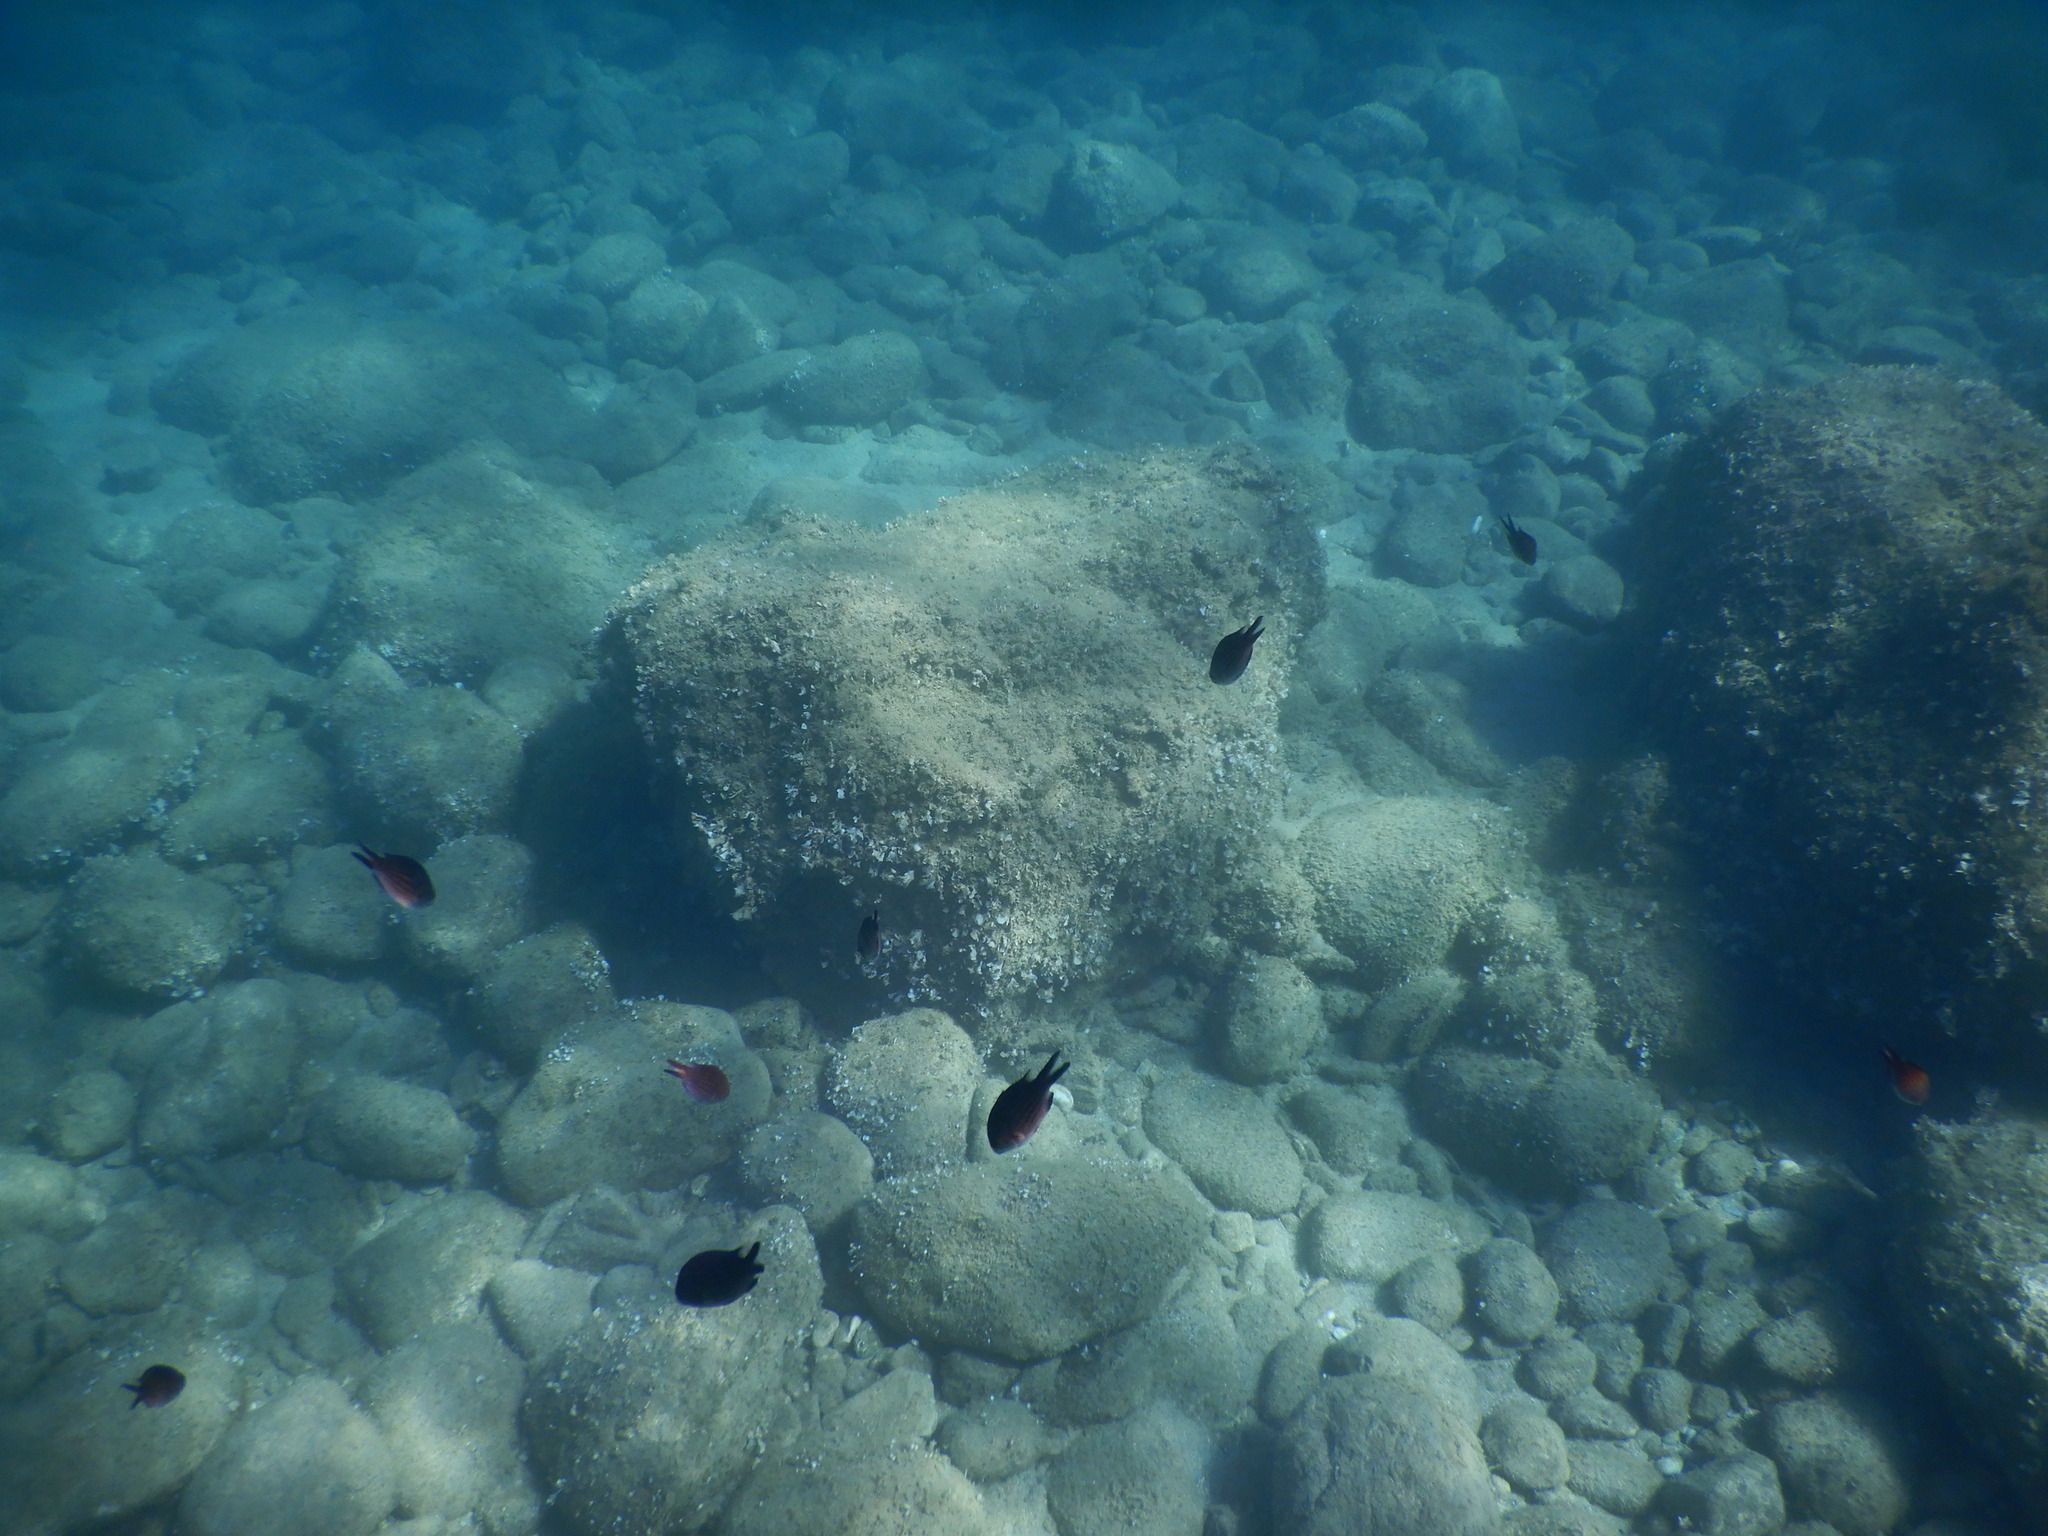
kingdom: Animalia
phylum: Chordata
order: Perciformes
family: Pomacentridae
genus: Chromis
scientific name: Chromis chromis
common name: Damselfish
